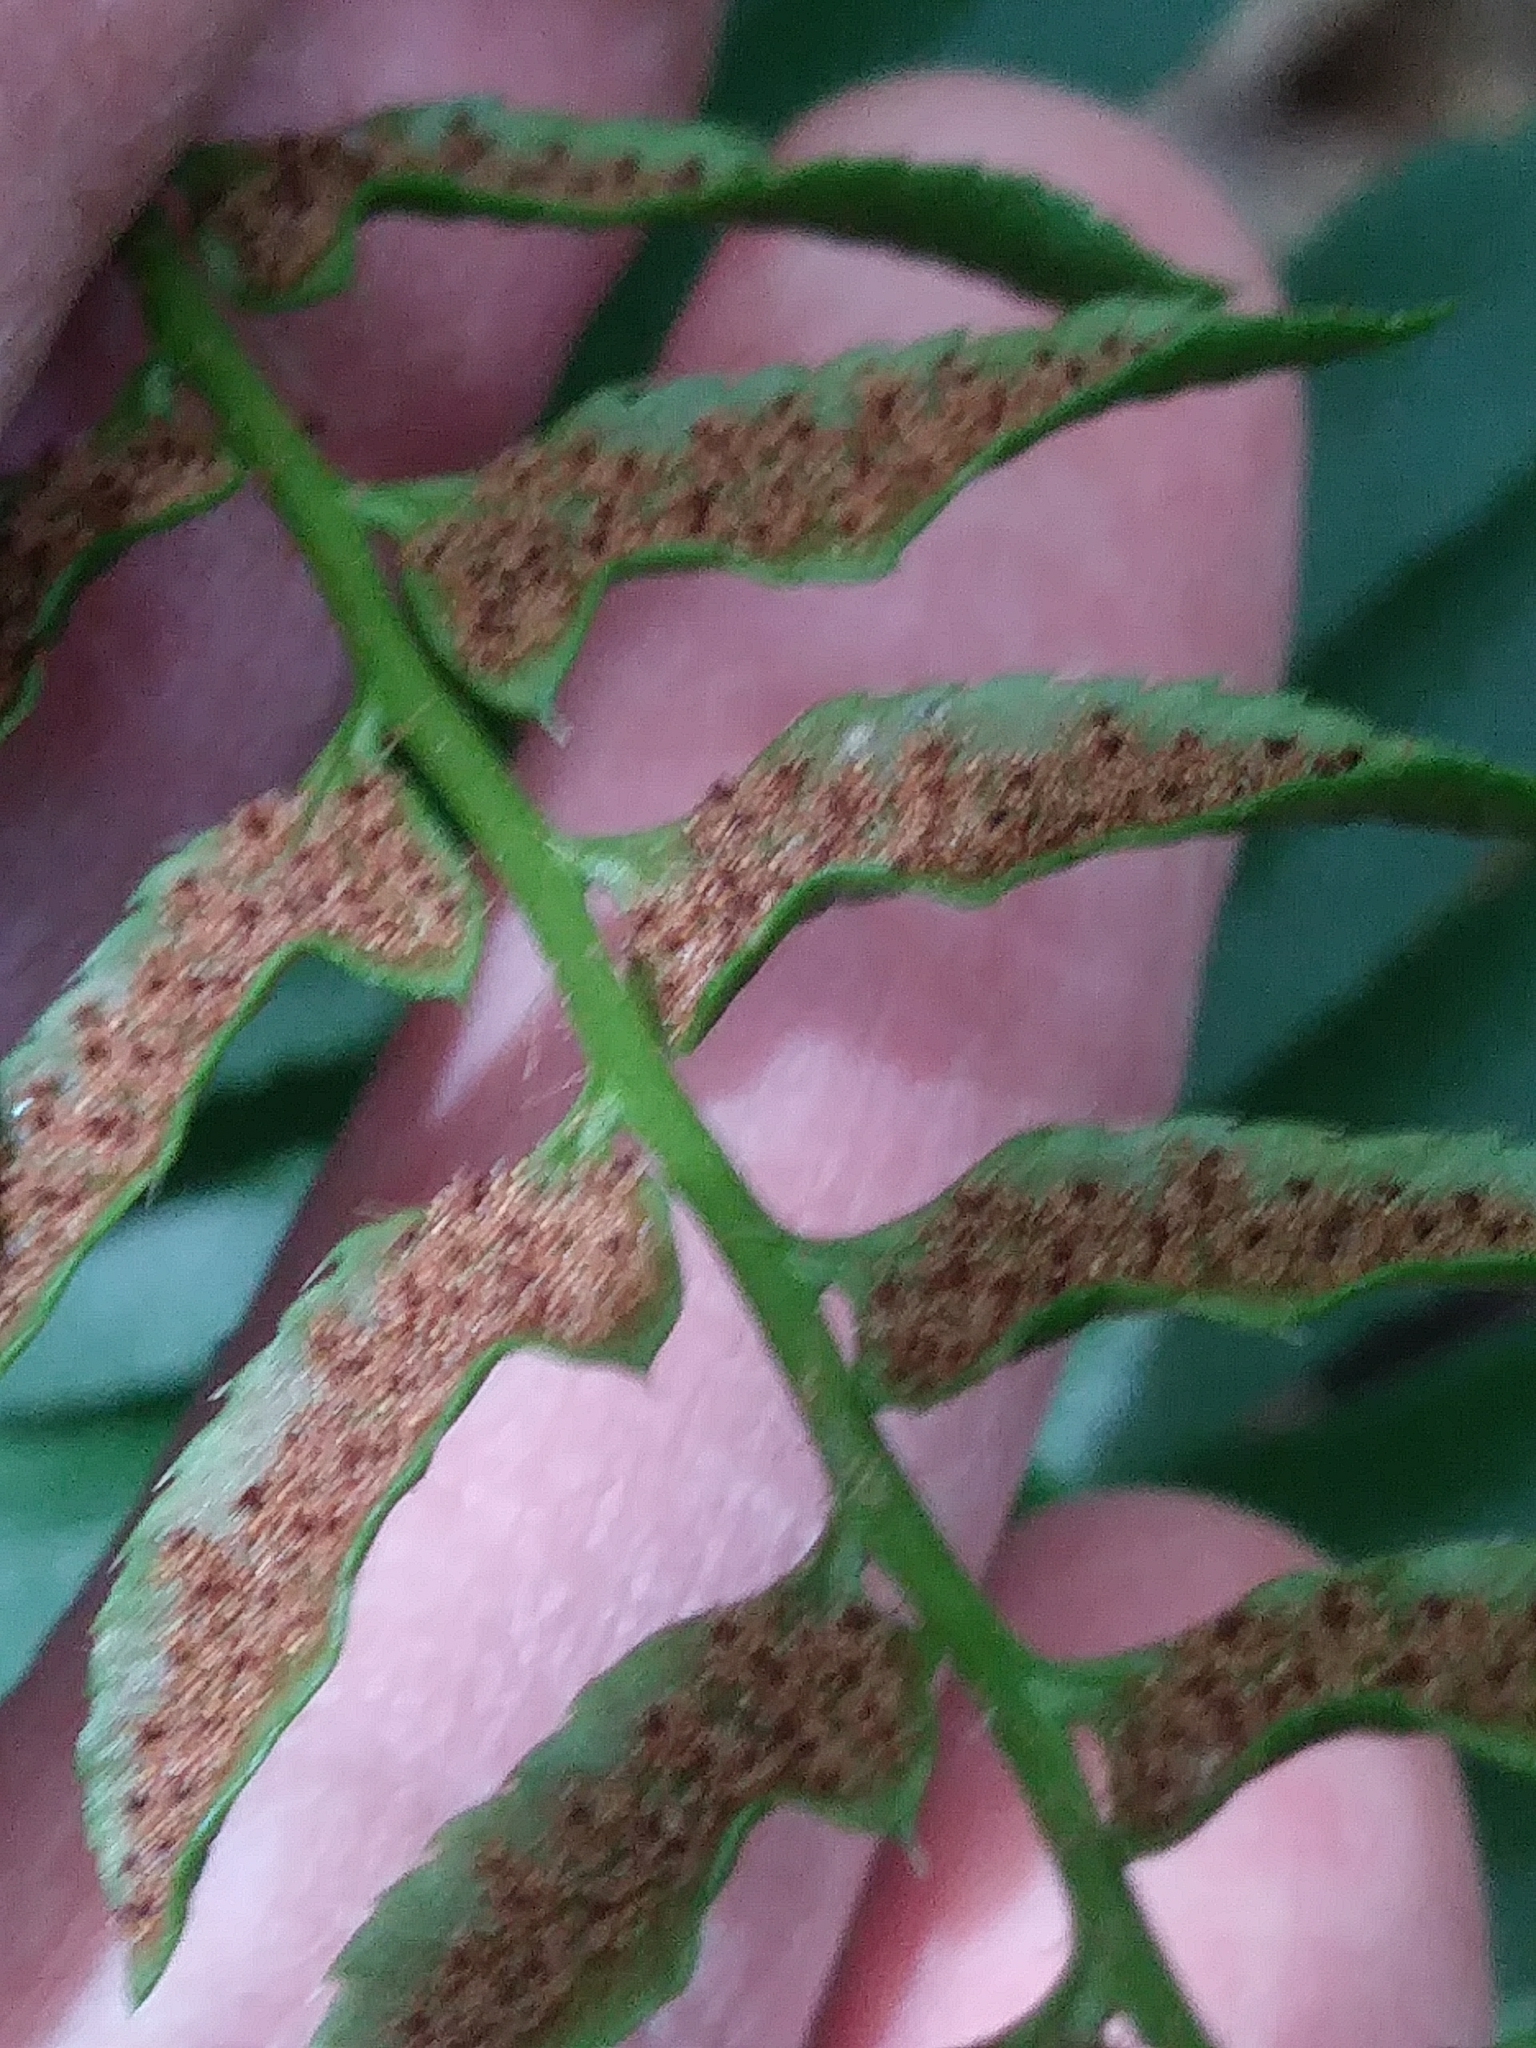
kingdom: Plantae
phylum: Tracheophyta
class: Polypodiopsida
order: Polypodiales
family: Dryopteridaceae
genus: Polystichum
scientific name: Polystichum acrostichoides
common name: Christmas fern
